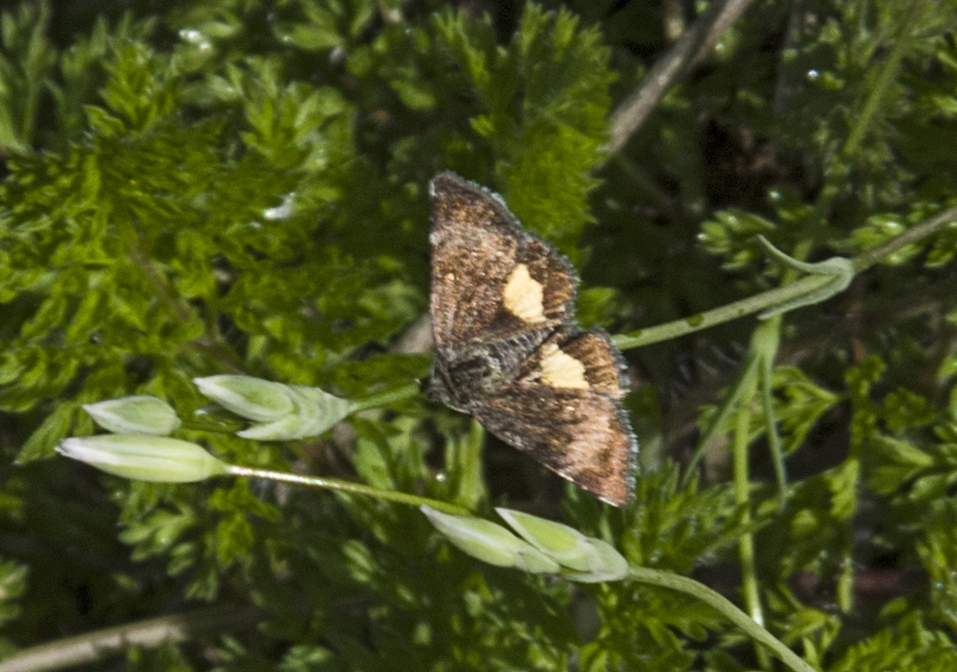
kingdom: Animalia
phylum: Arthropoda
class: Insecta
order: Lepidoptera
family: Noctuidae
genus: Panemeria
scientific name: Panemeria tenebrata
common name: Small yellow underwing
